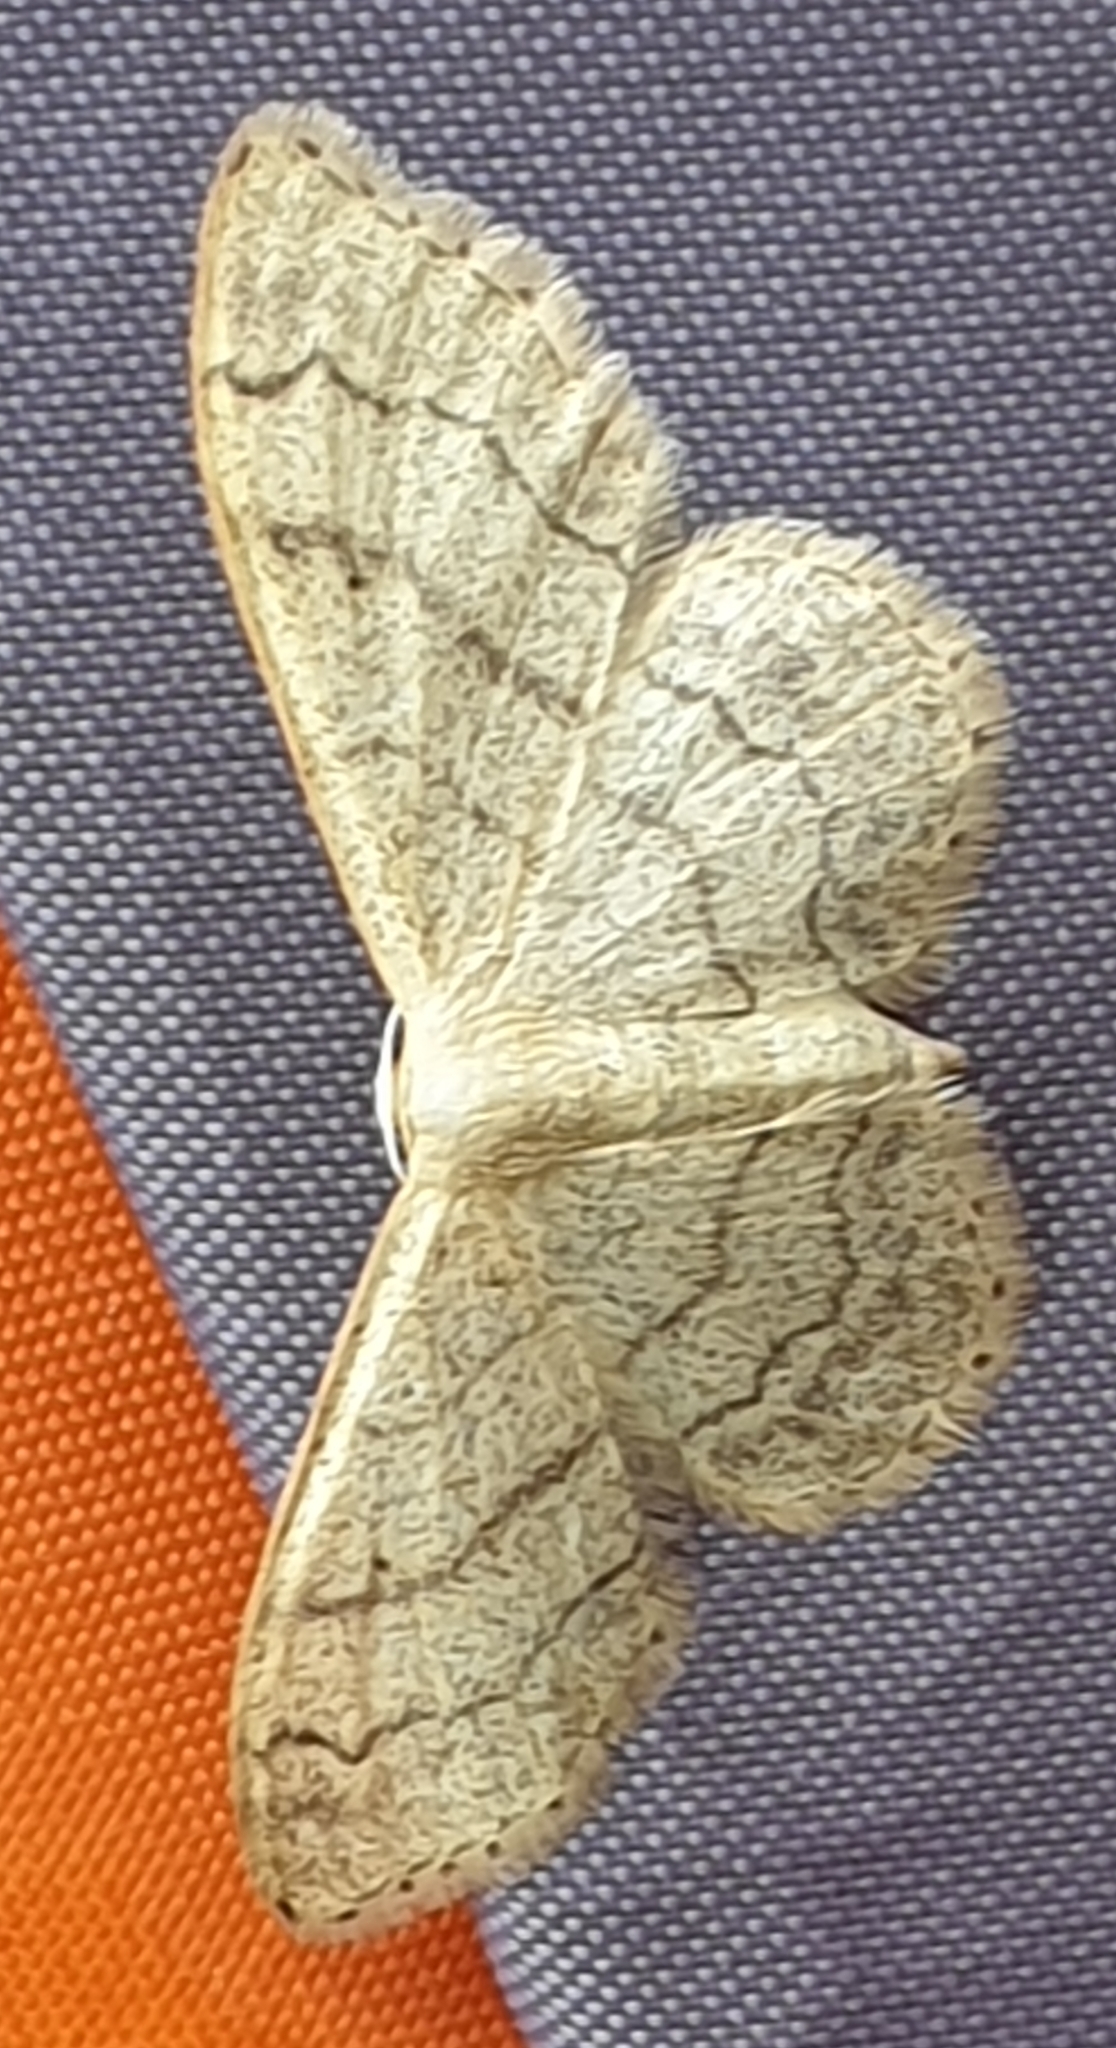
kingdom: Animalia
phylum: Arthropoda
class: Insecta
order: Lepidoptera
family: Geometridae
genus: Idaea
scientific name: Idaea aversata
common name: Riband wave
